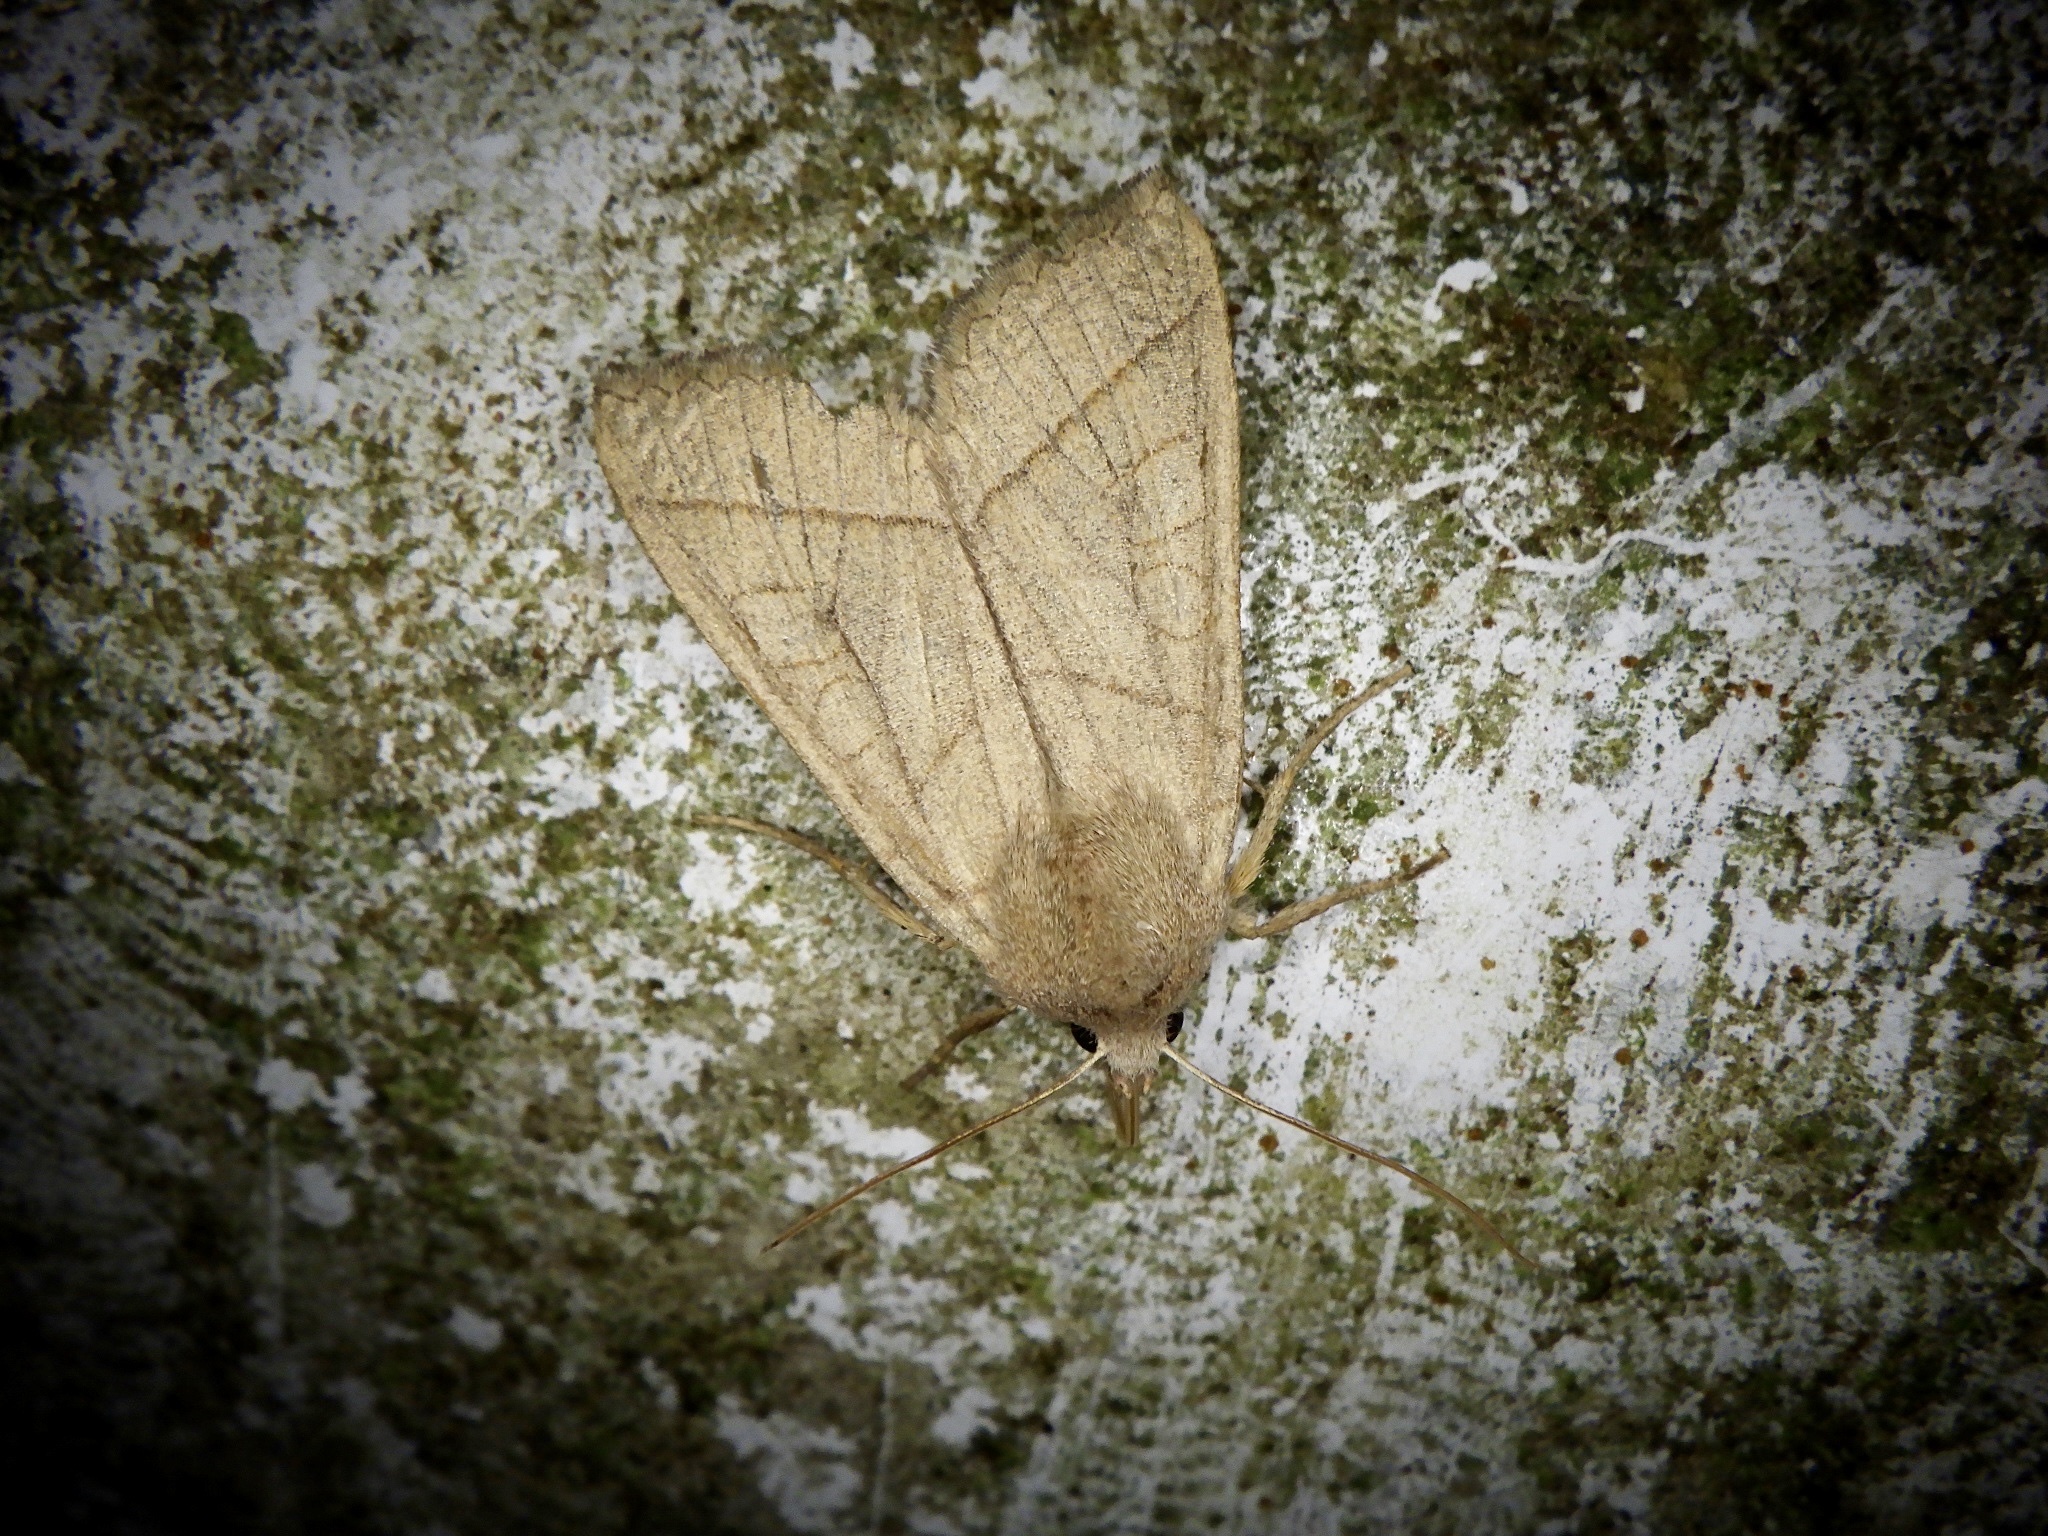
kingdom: Animalia
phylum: Arthropoda
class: Insecta
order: Lepidoptera
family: Noctuidae
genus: Telorta
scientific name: Telorta divergens
